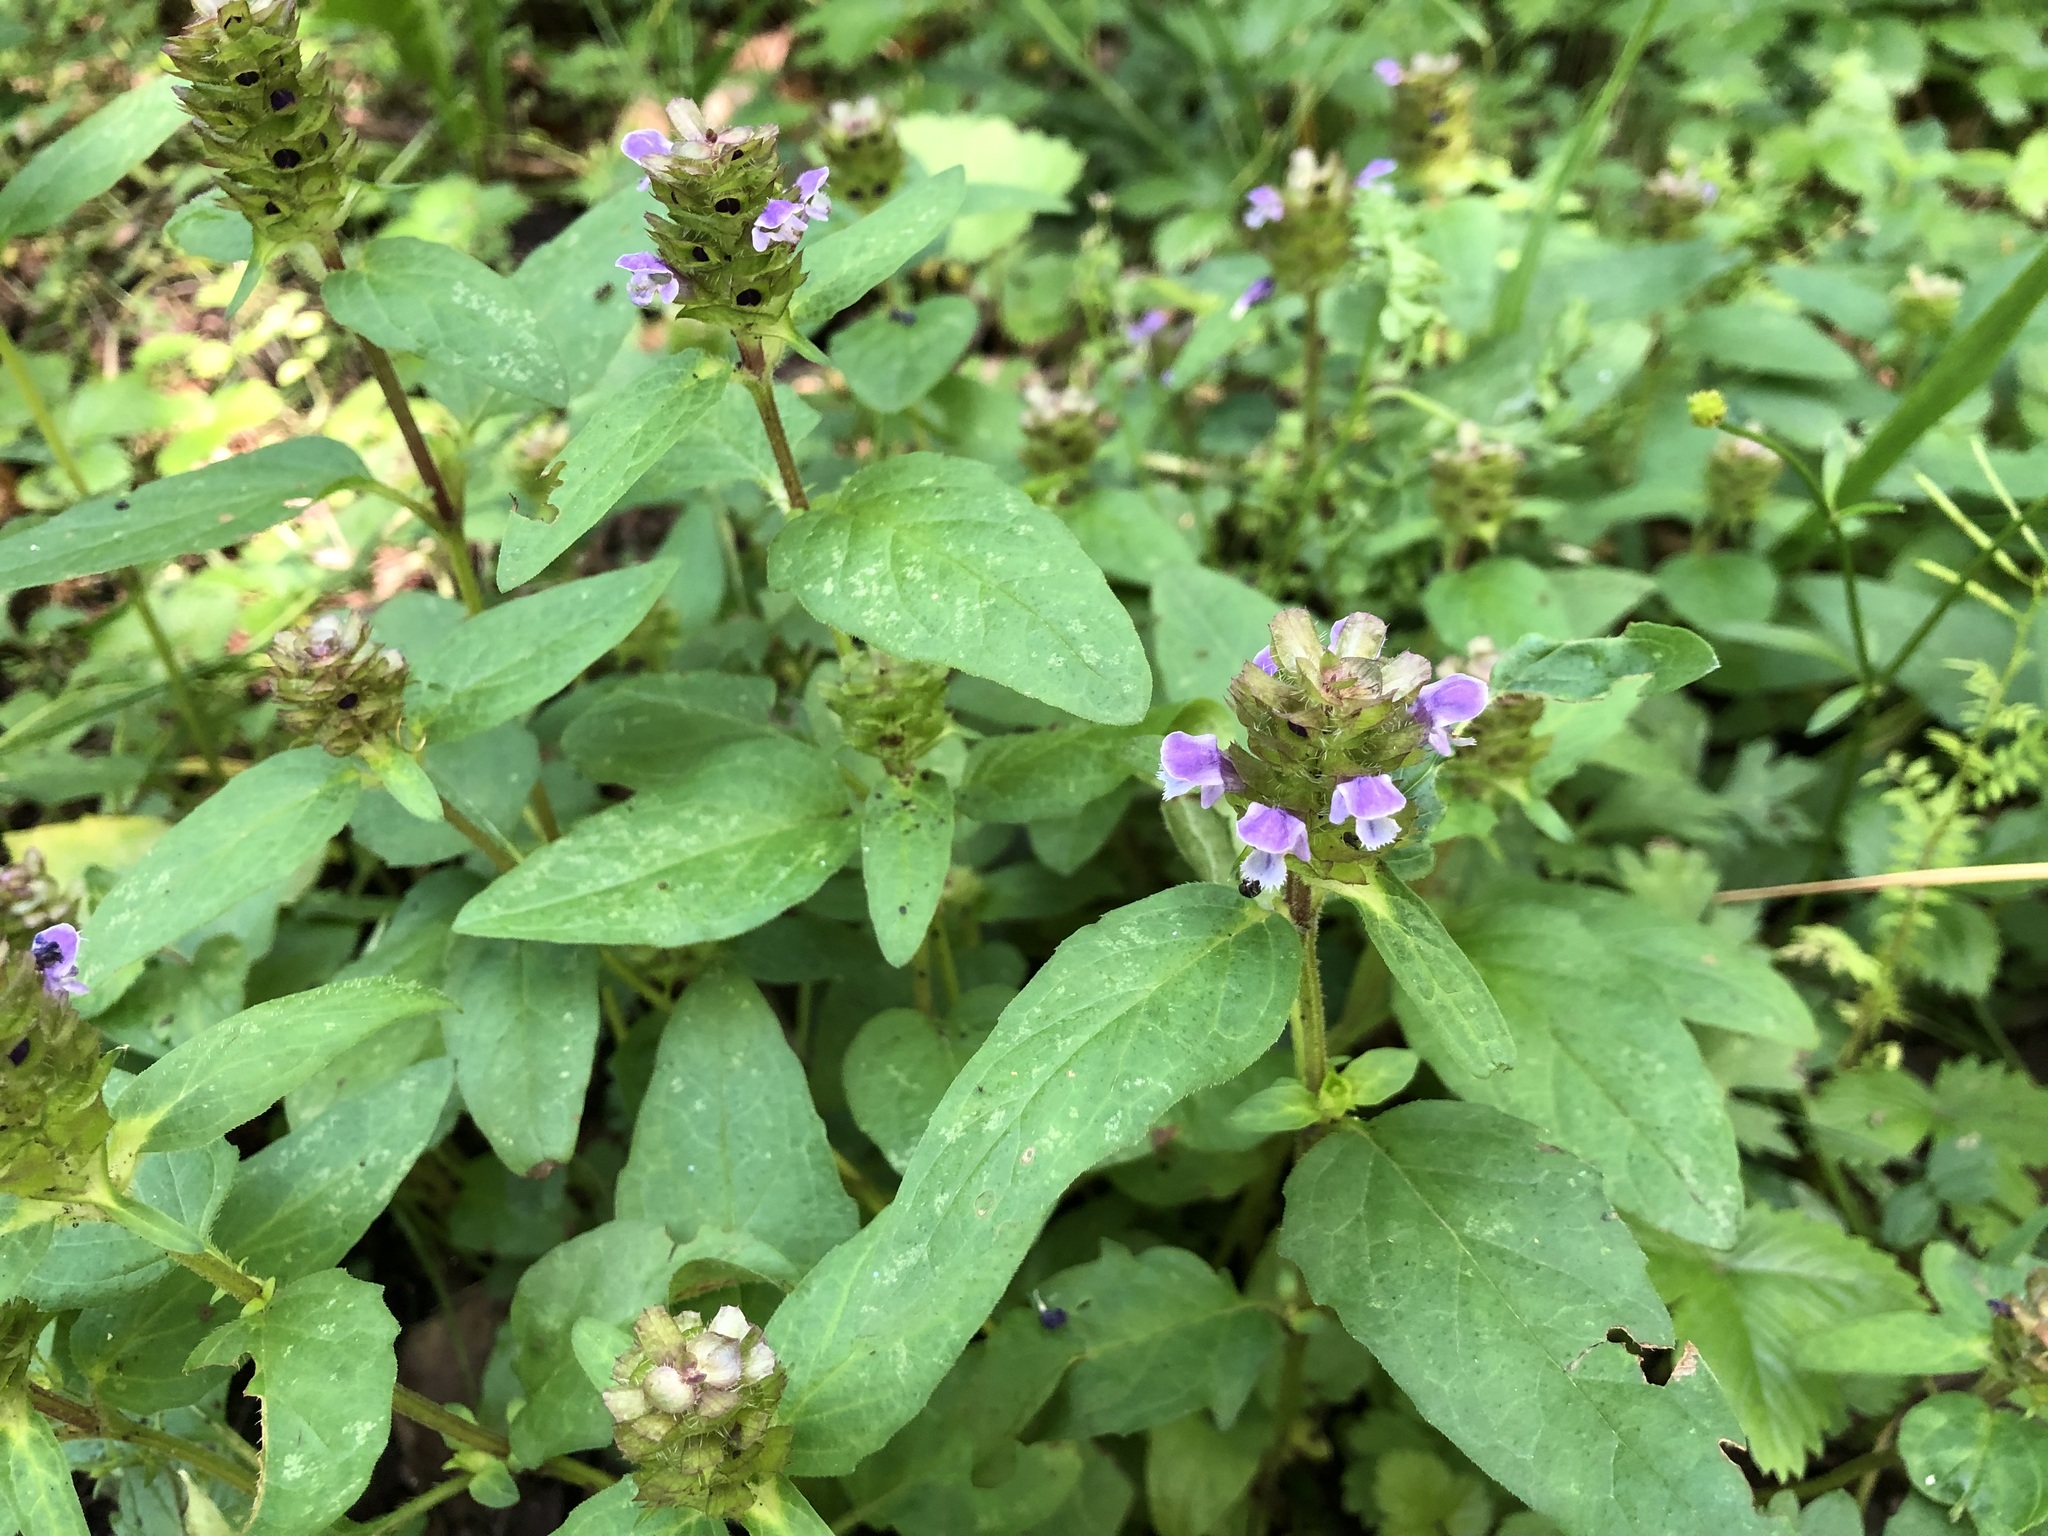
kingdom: Plantae
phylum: Tracheophyta
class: Magnoliopsida
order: Lamiales
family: Lamiaceae
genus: Prunella
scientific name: Prunella vulgaris
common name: Heal-all
